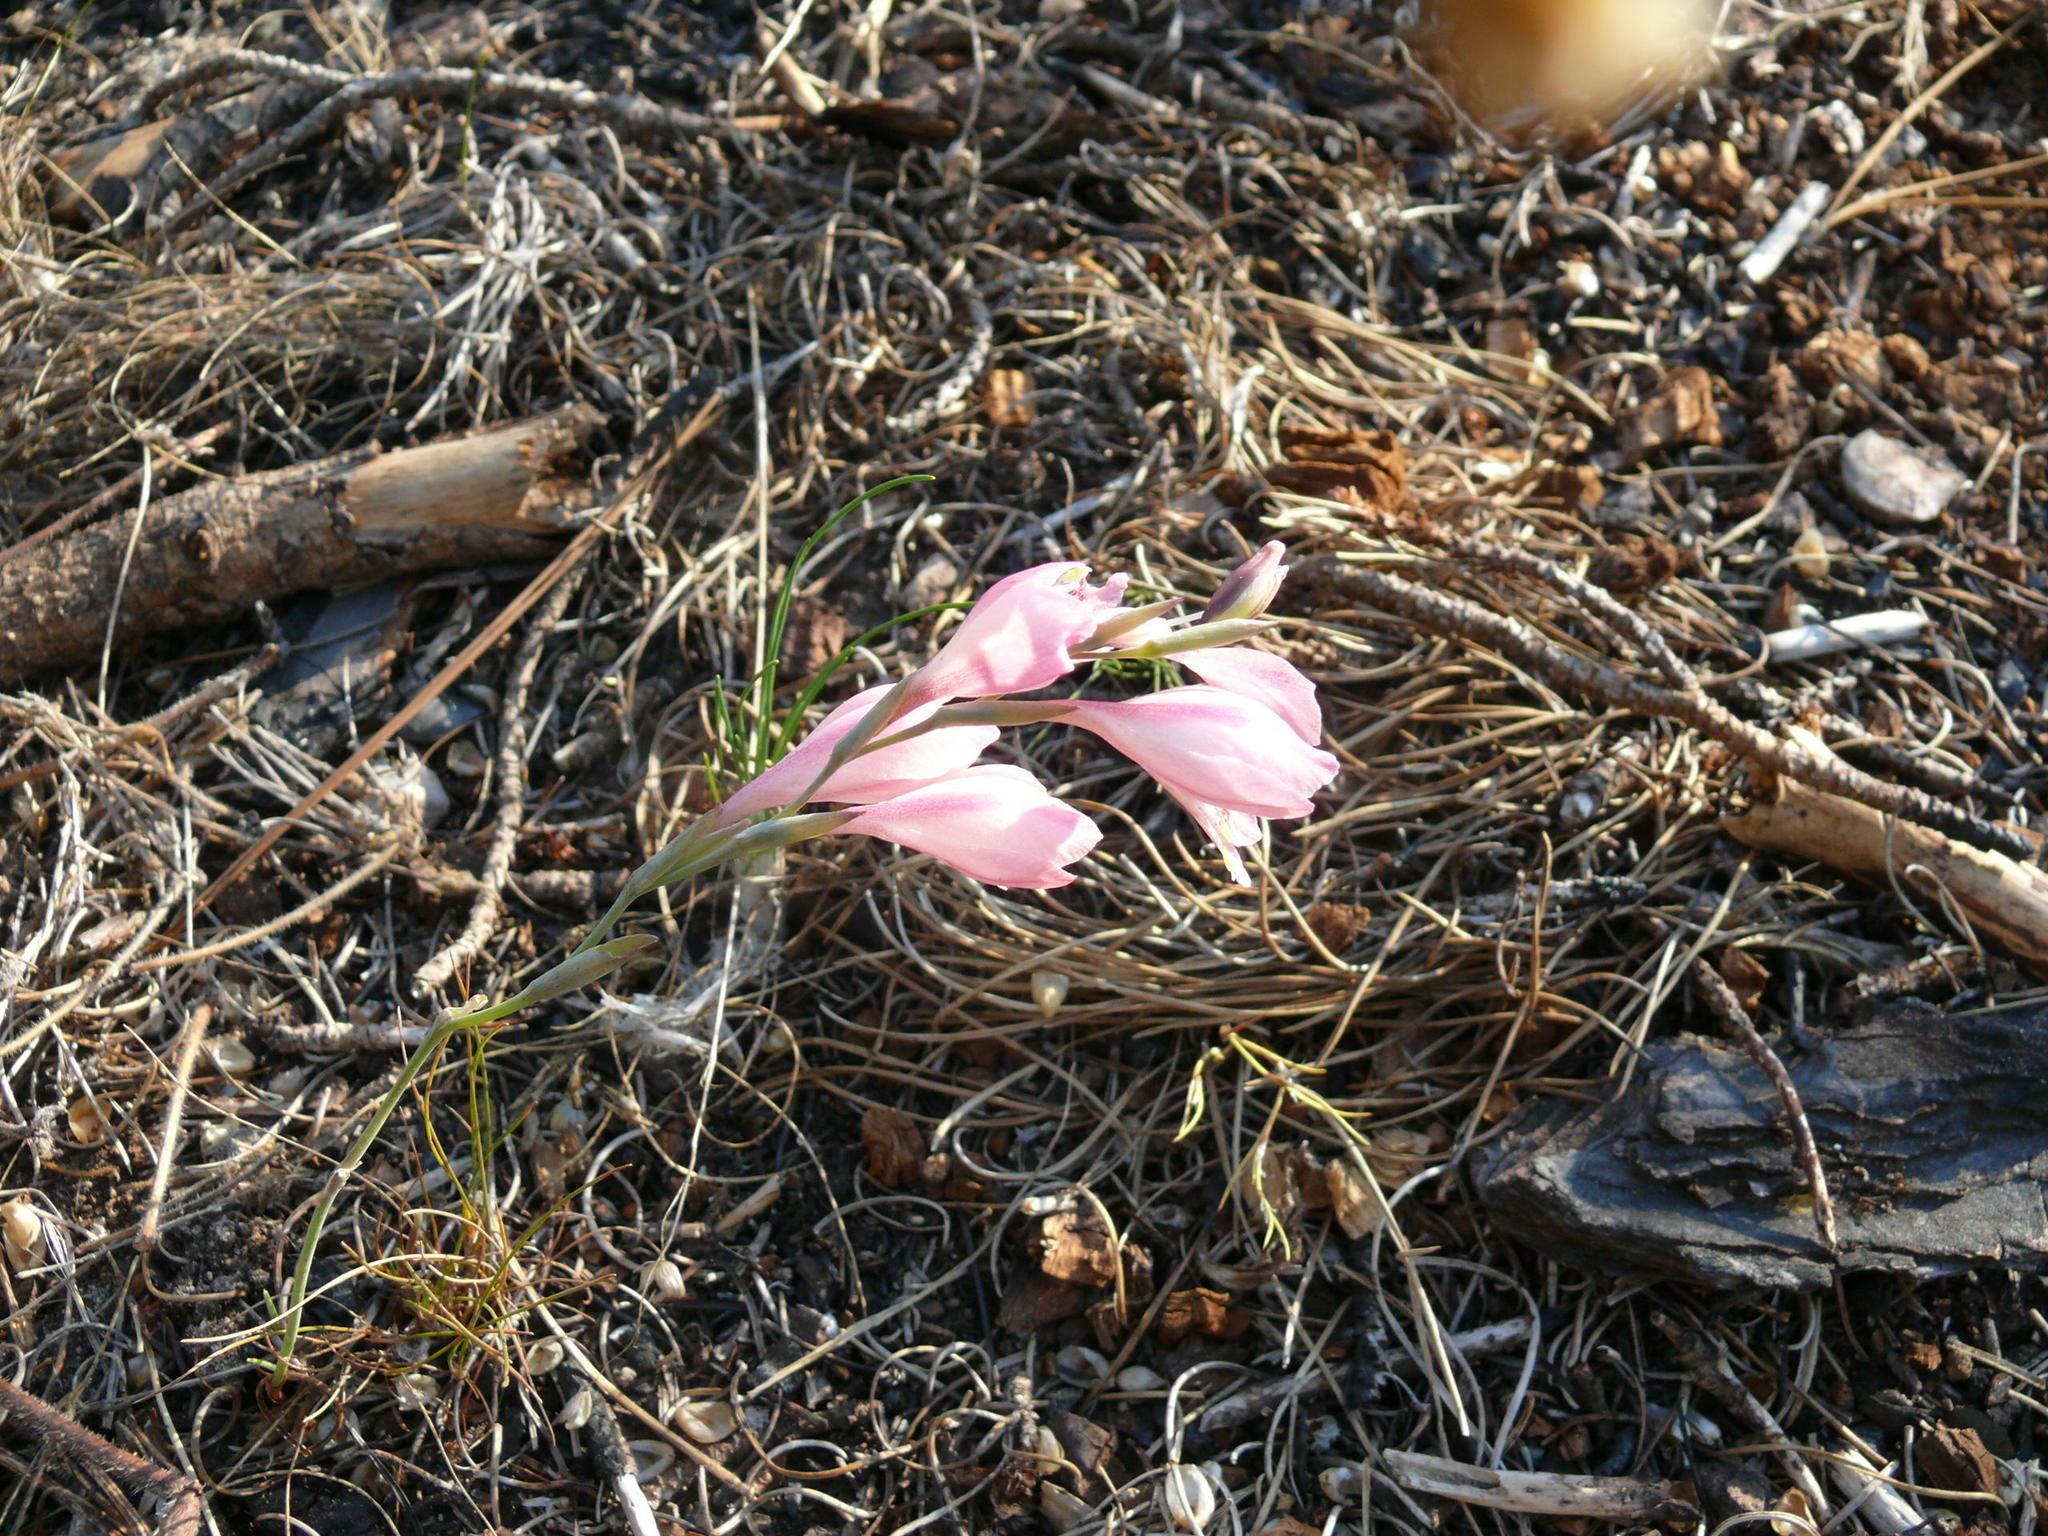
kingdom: Plantae
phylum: Tracheophyta
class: Liliopsida
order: Asparagales
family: Iridaceae
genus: Gladiolus
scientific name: Gladiolus brevifolius
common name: March pypie
